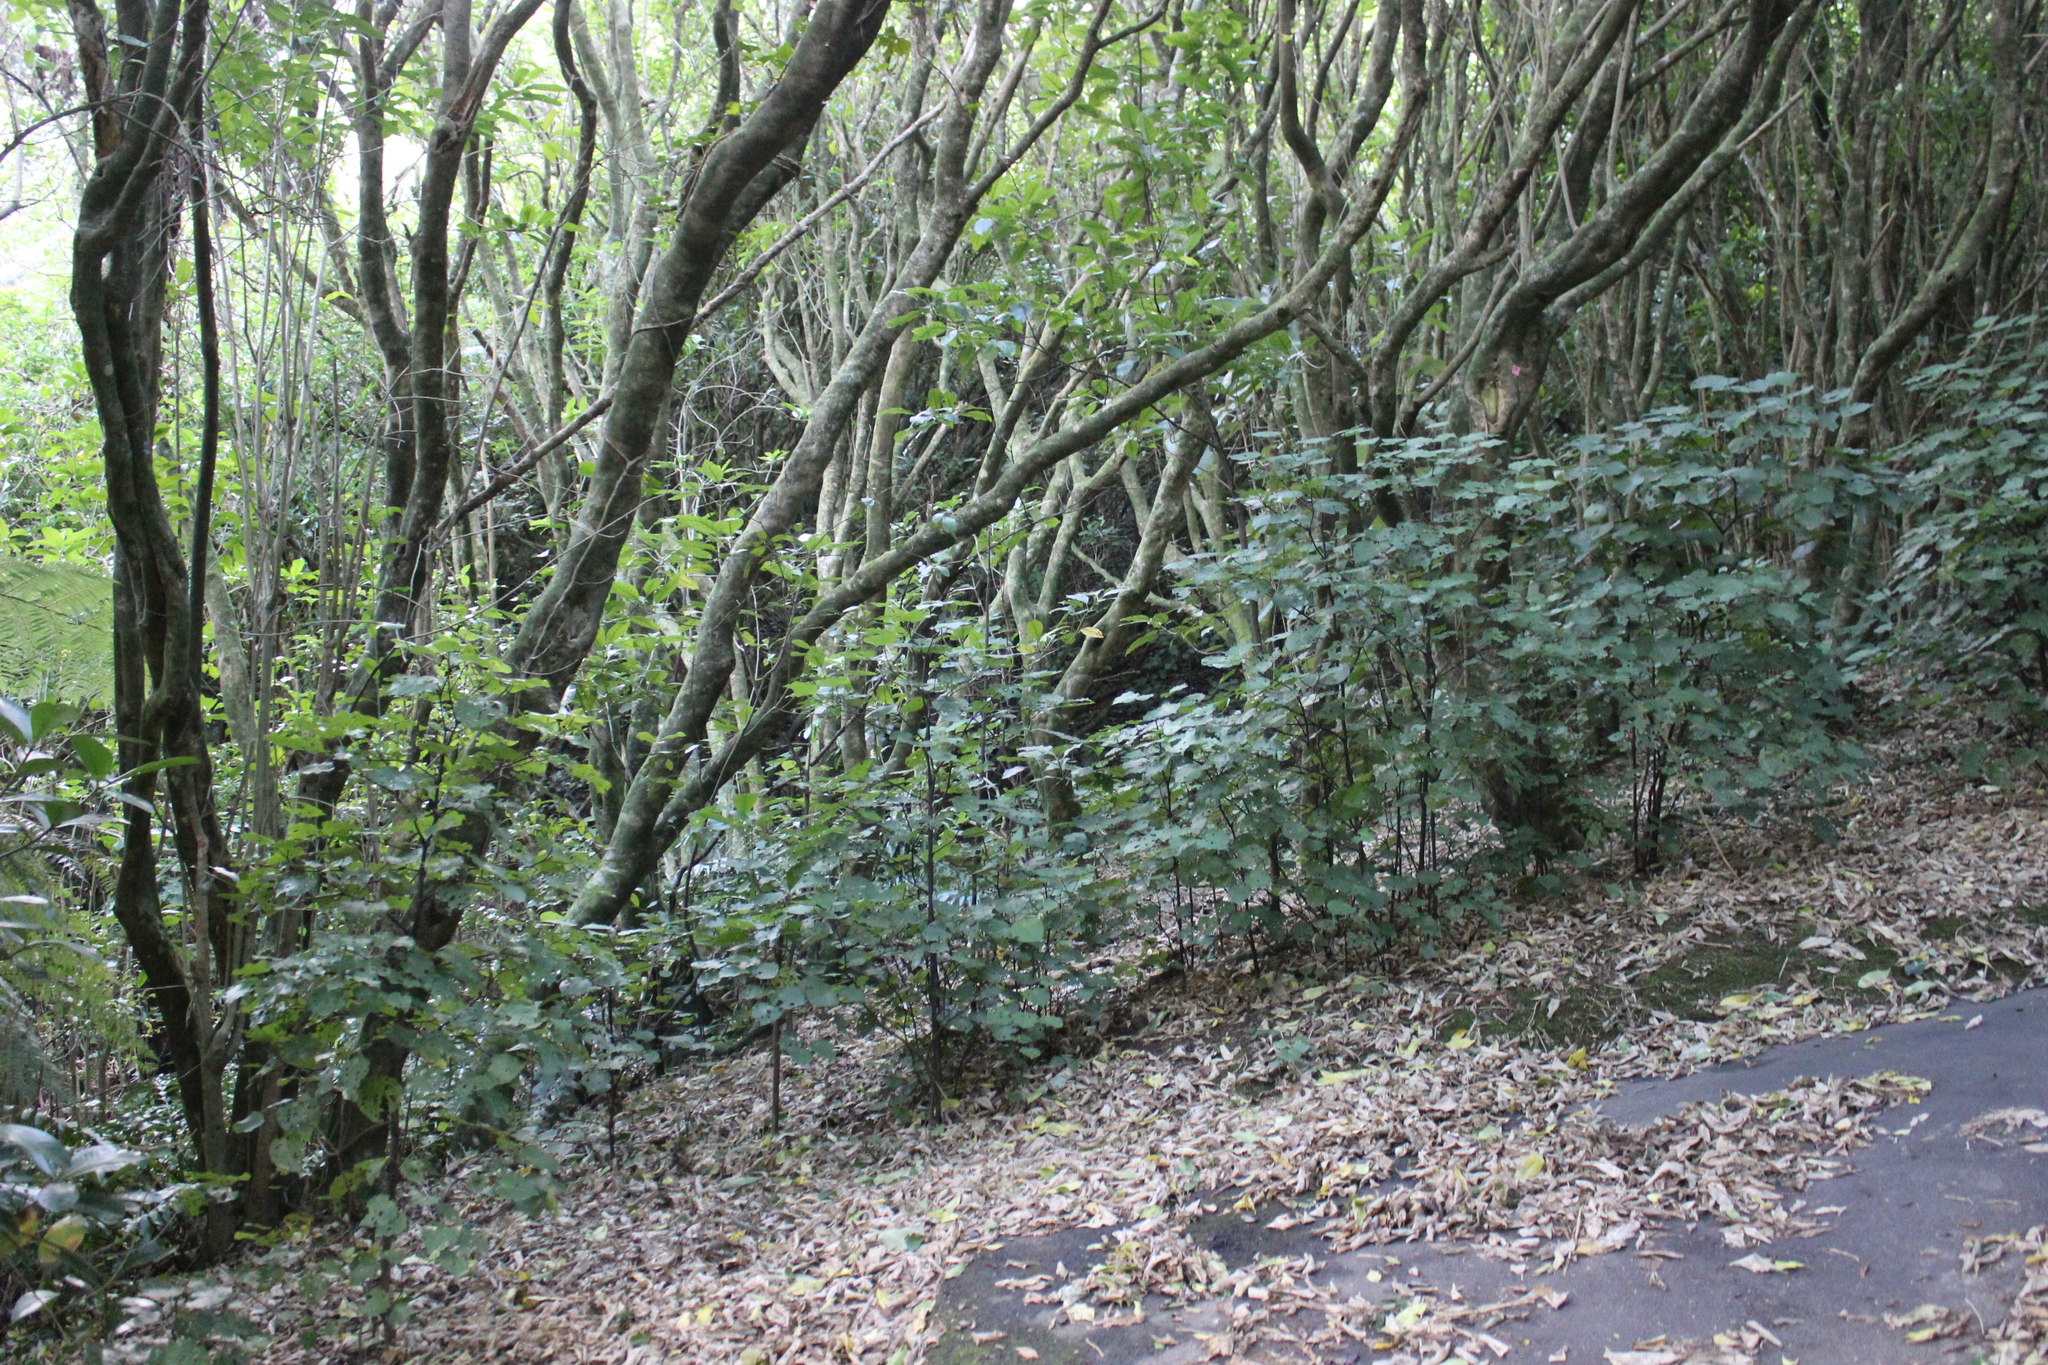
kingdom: Plantae
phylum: Tracheophyta
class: Magnoliopsida
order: Piperales
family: Piperaceae
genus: Macropiper
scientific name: Macropiper excelsum
